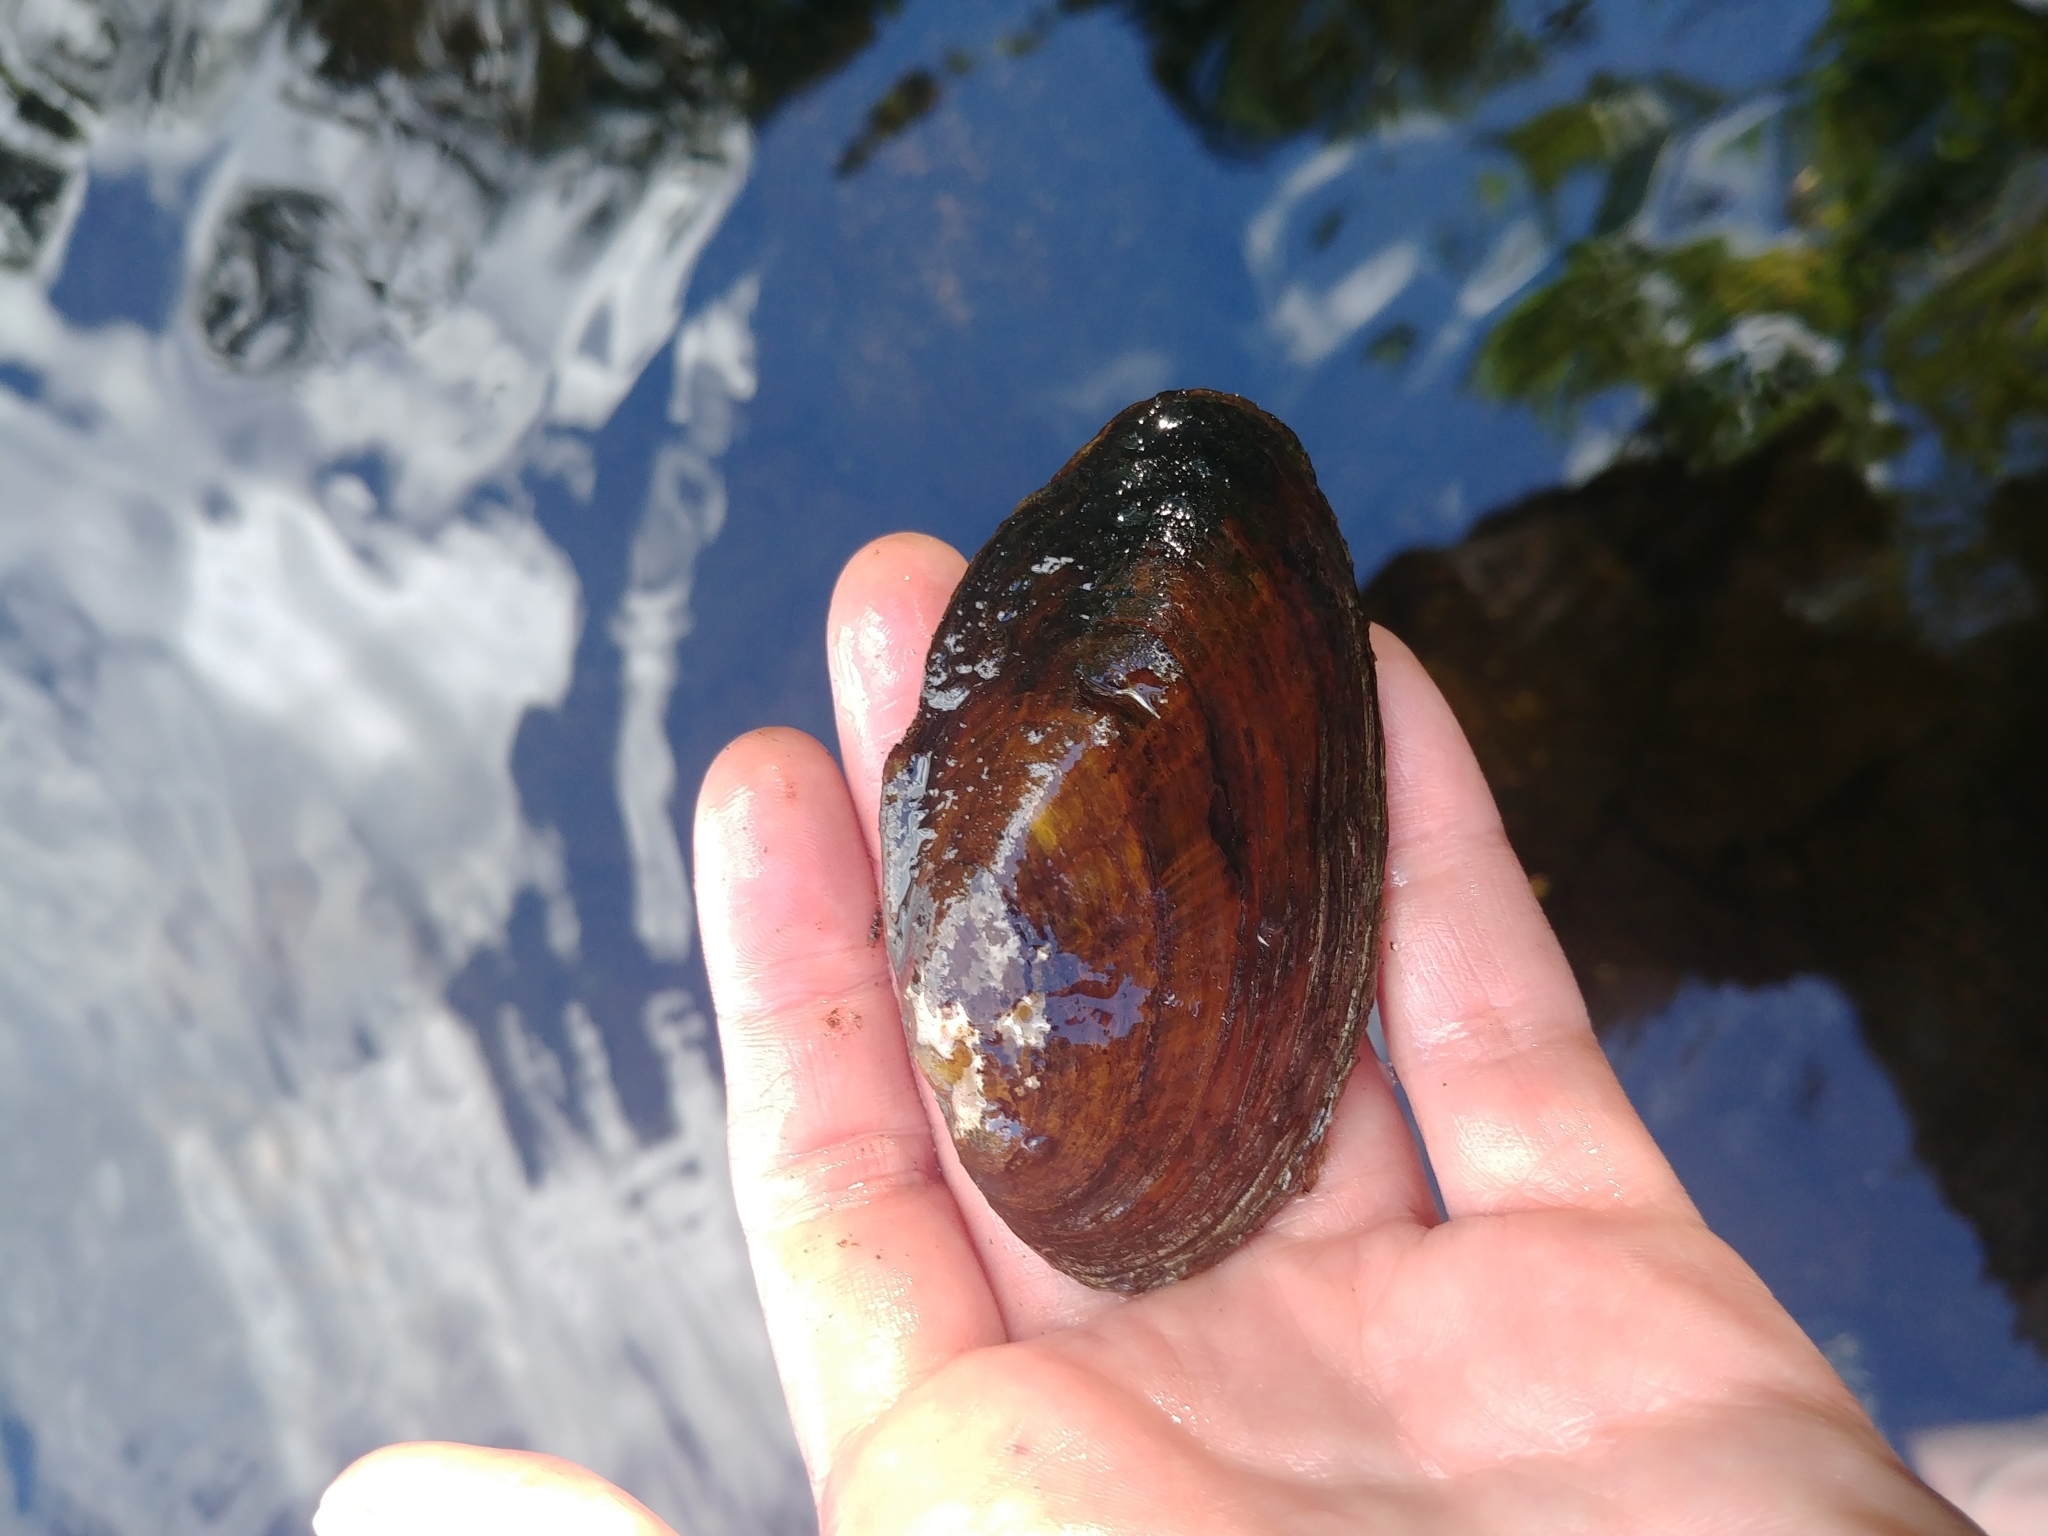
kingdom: Animalia
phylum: Mollusca
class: Bivalvia
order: Unionida
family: Unionidae
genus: Elliptio
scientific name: Elliptio complanata
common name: Eastern elliptio
